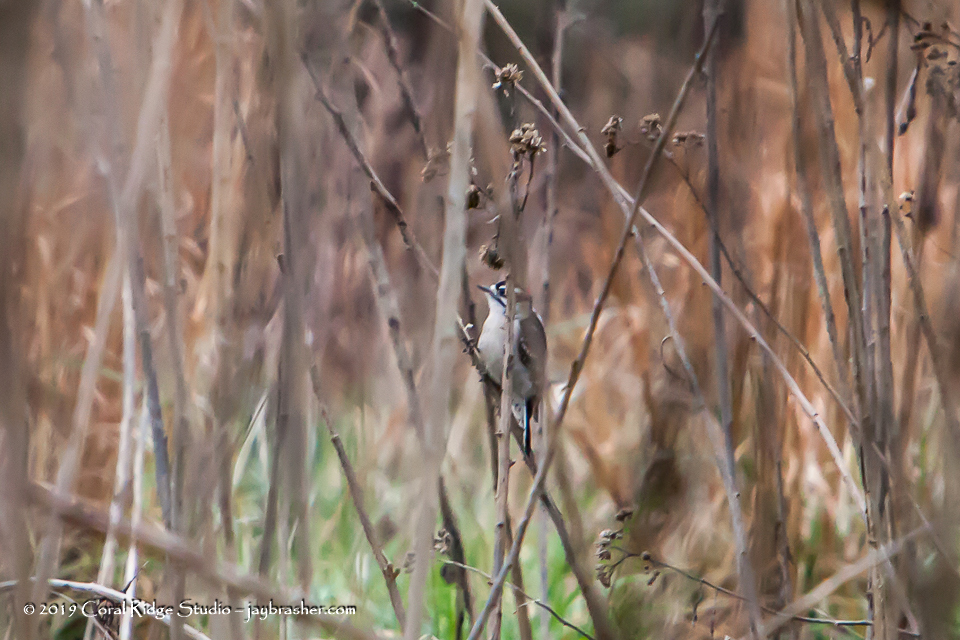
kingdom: Animalia
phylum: Chordata
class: Aves
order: Piciformes
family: Picidae
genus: Dryobates
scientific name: Dryobates pubescens
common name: Downy woodpecker
